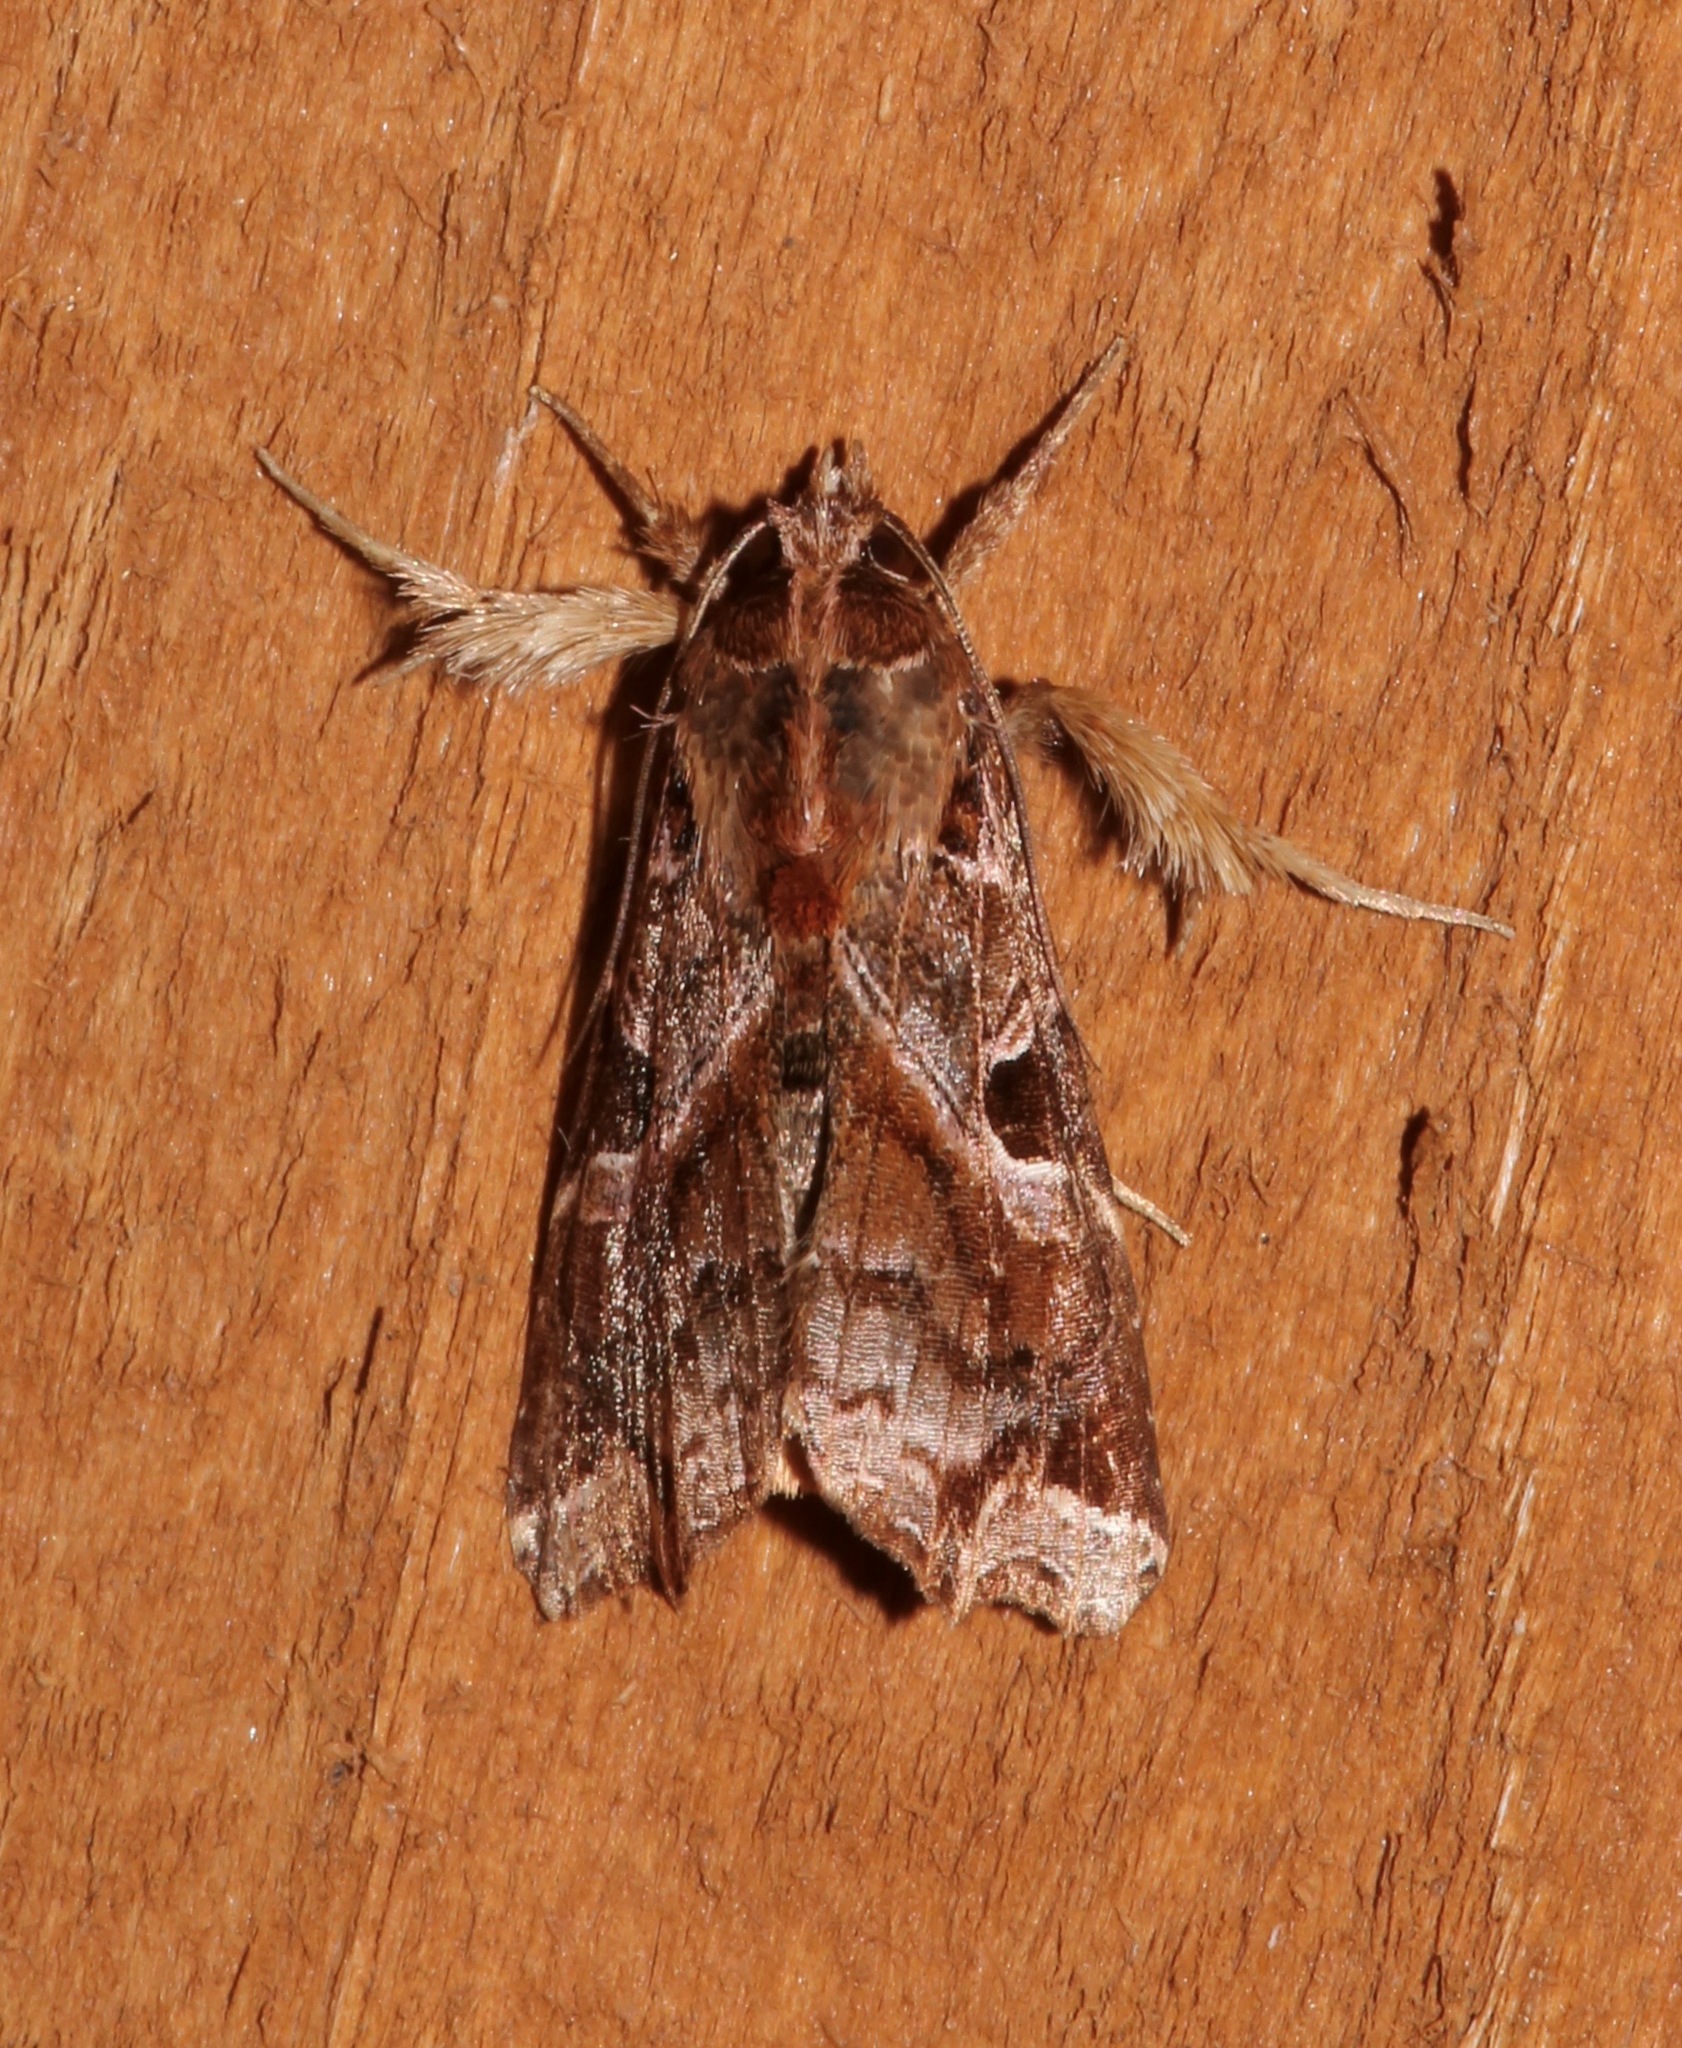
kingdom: Animalia
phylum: Arthropoda
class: Insecta
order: Lepidoptera
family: Noctuidae
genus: Callopistria
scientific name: Callopistria floridensis
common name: Florida fern moth
